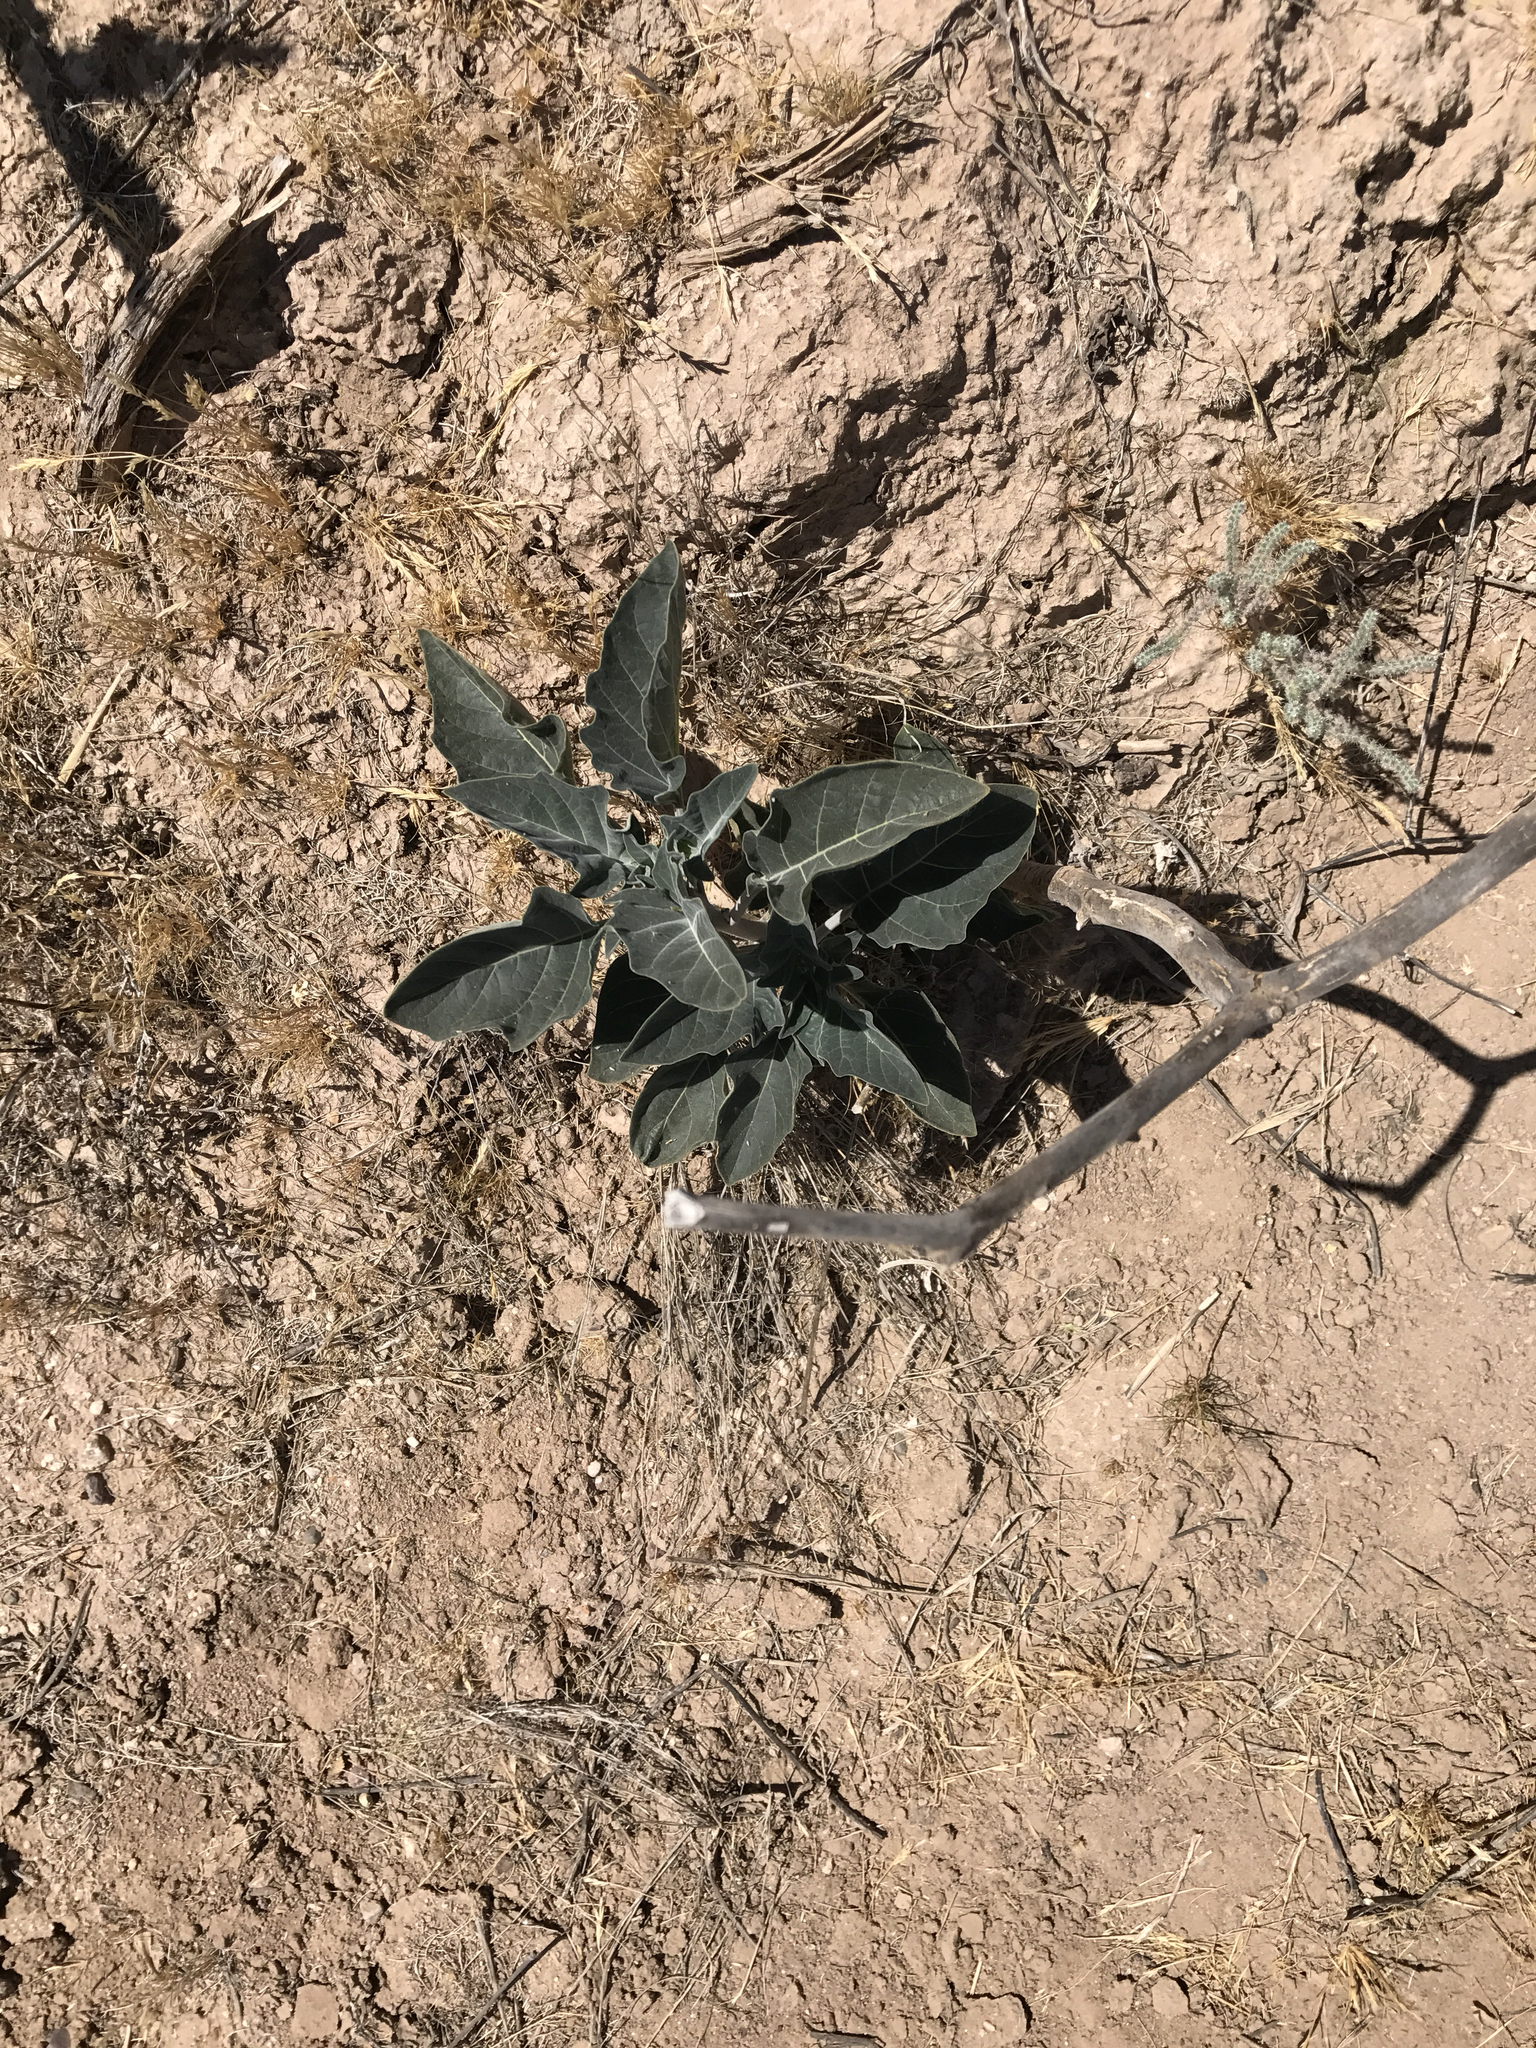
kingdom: Plantae
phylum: Tracheophyta
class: Magnoliopsida
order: Solanales
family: Solanaceae
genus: Datura
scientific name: Datura wrightii
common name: Sacred thorn-apple
